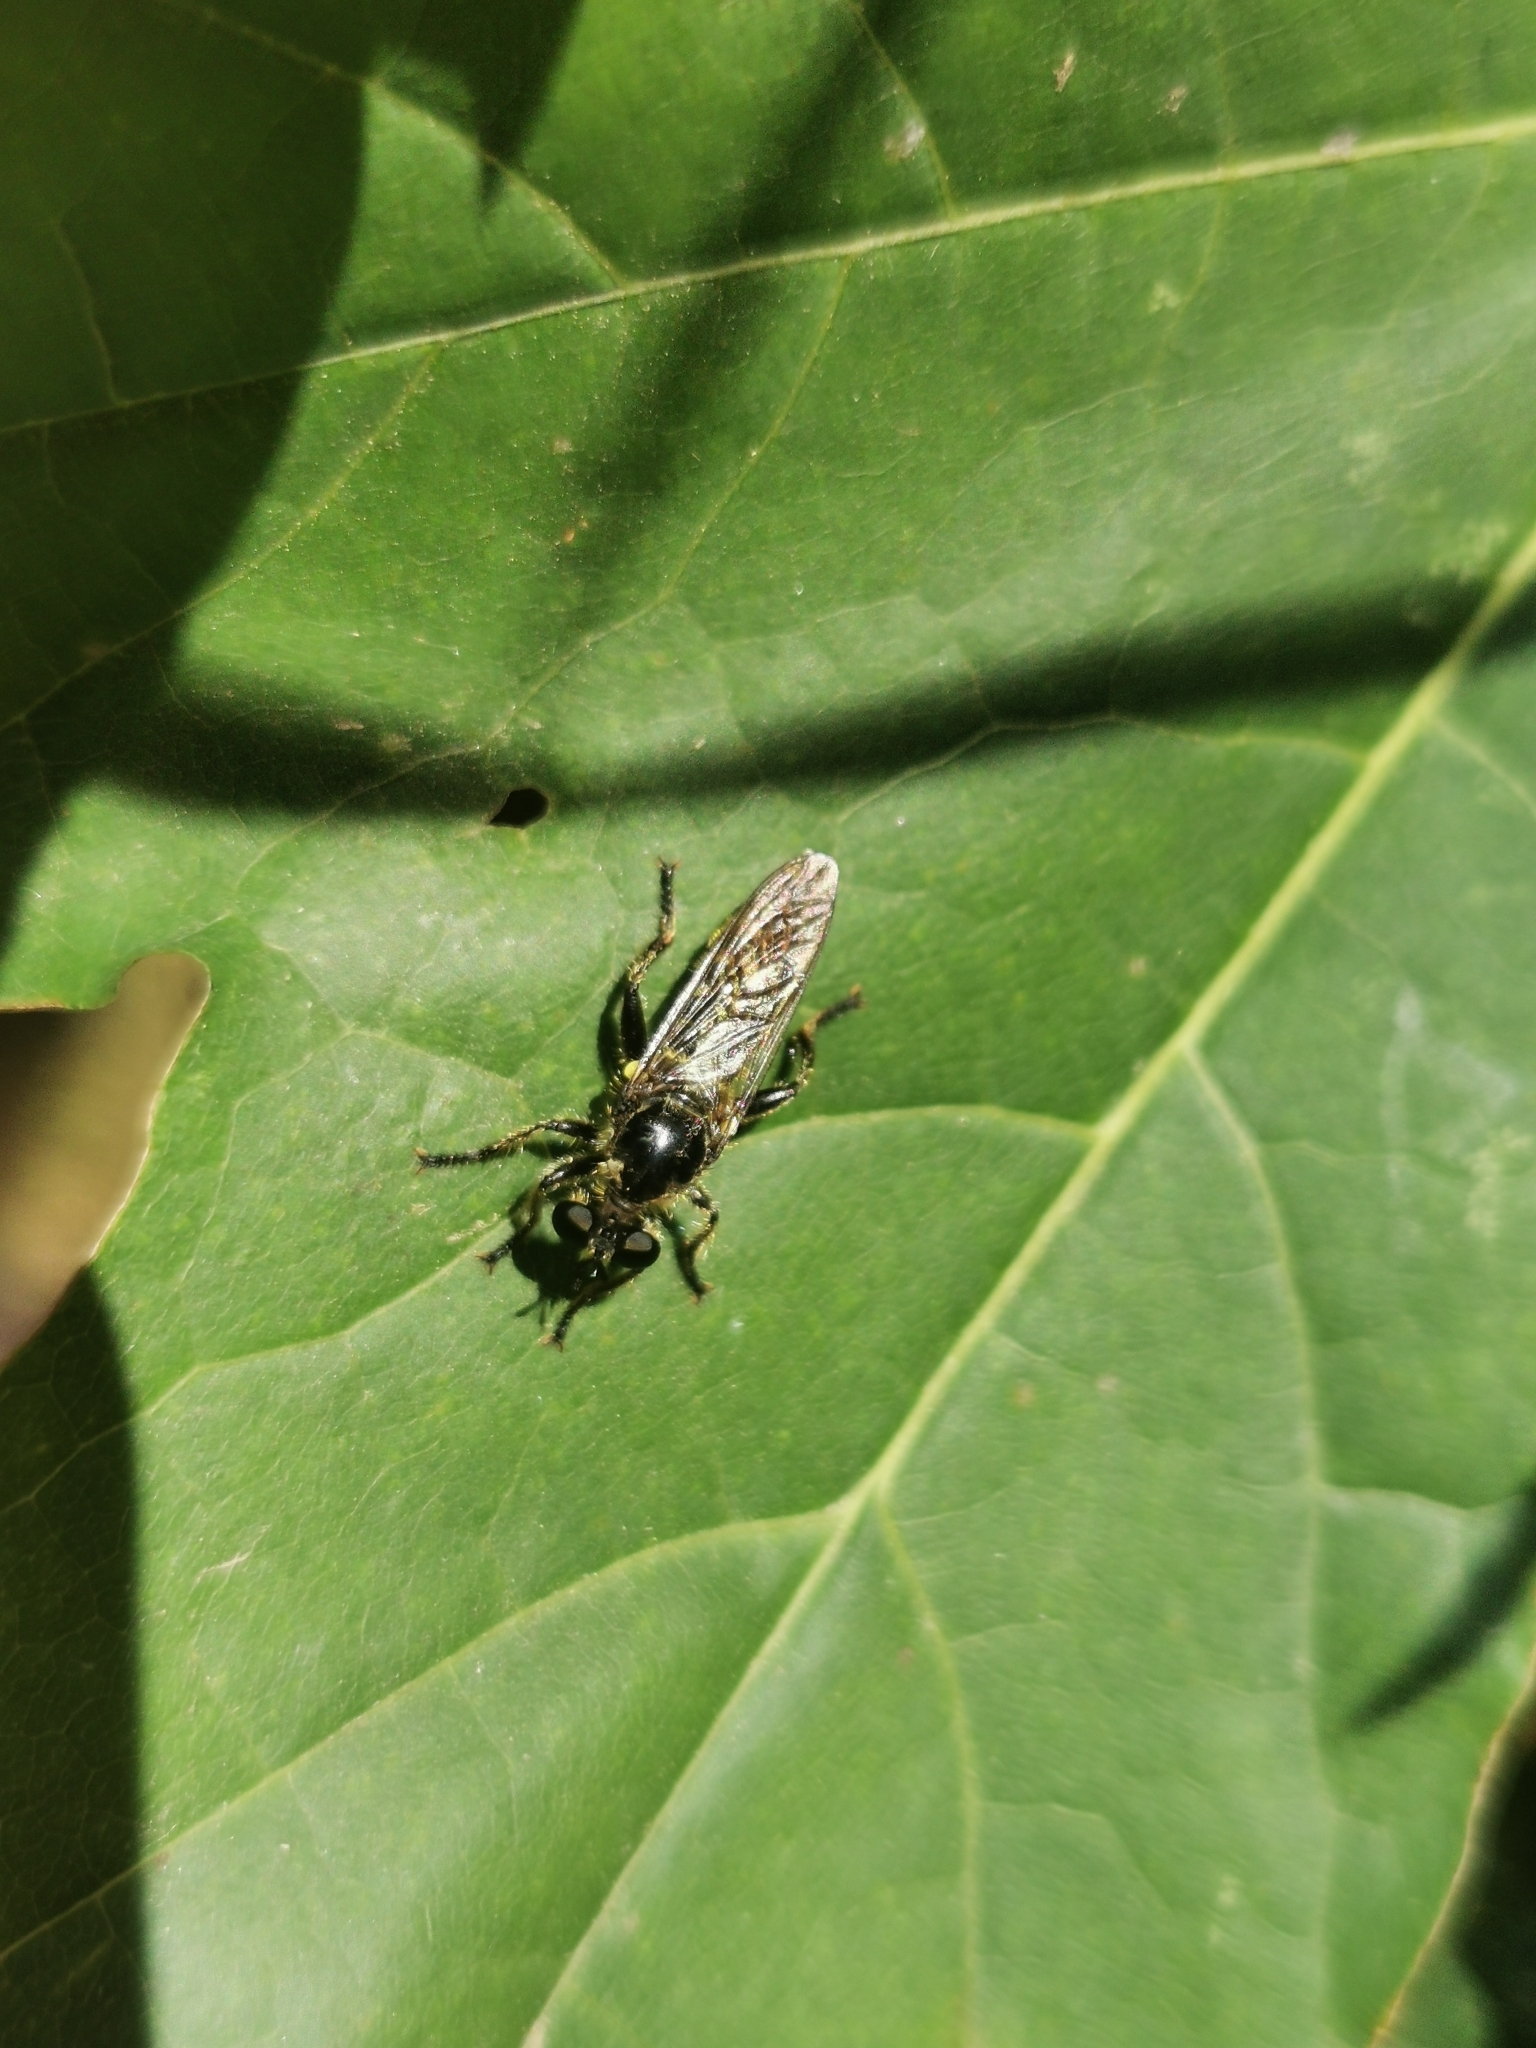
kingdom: Animalia
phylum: Arthropoda
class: Insecta
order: Diptera
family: Asilidae
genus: Lamyra
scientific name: Lamyra fimbriata
